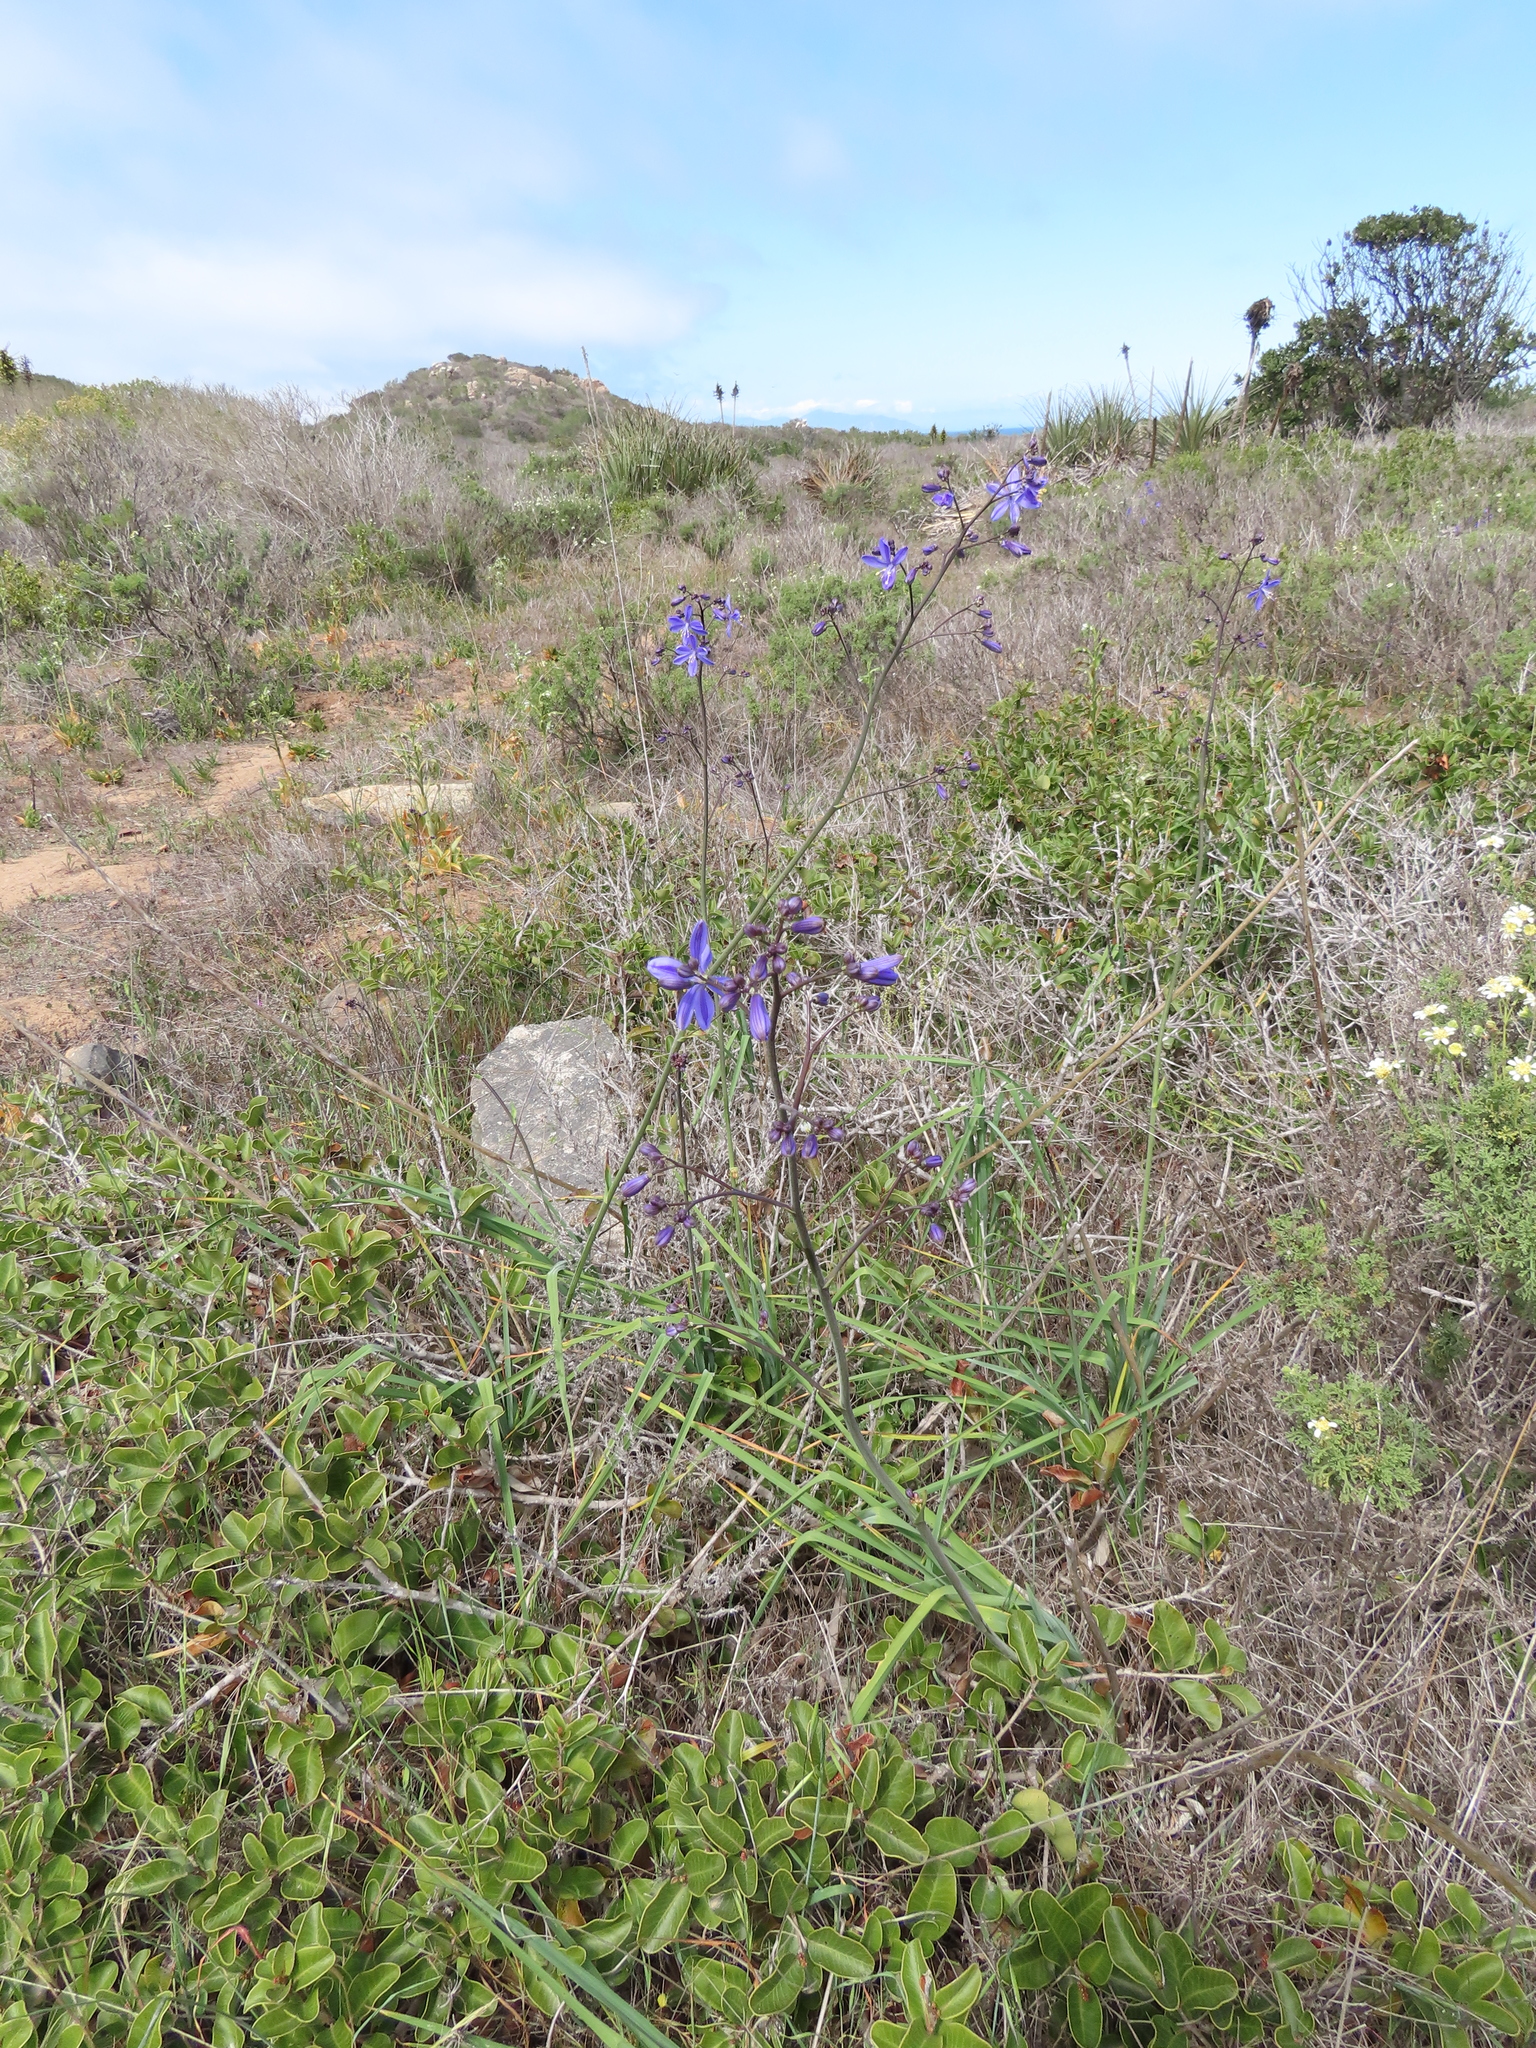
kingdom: Plantae
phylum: Tracheophyta
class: Liliopsida
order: Asparagales
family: Asphodelaceae
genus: Pasithea
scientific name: Pasithea caerulea
